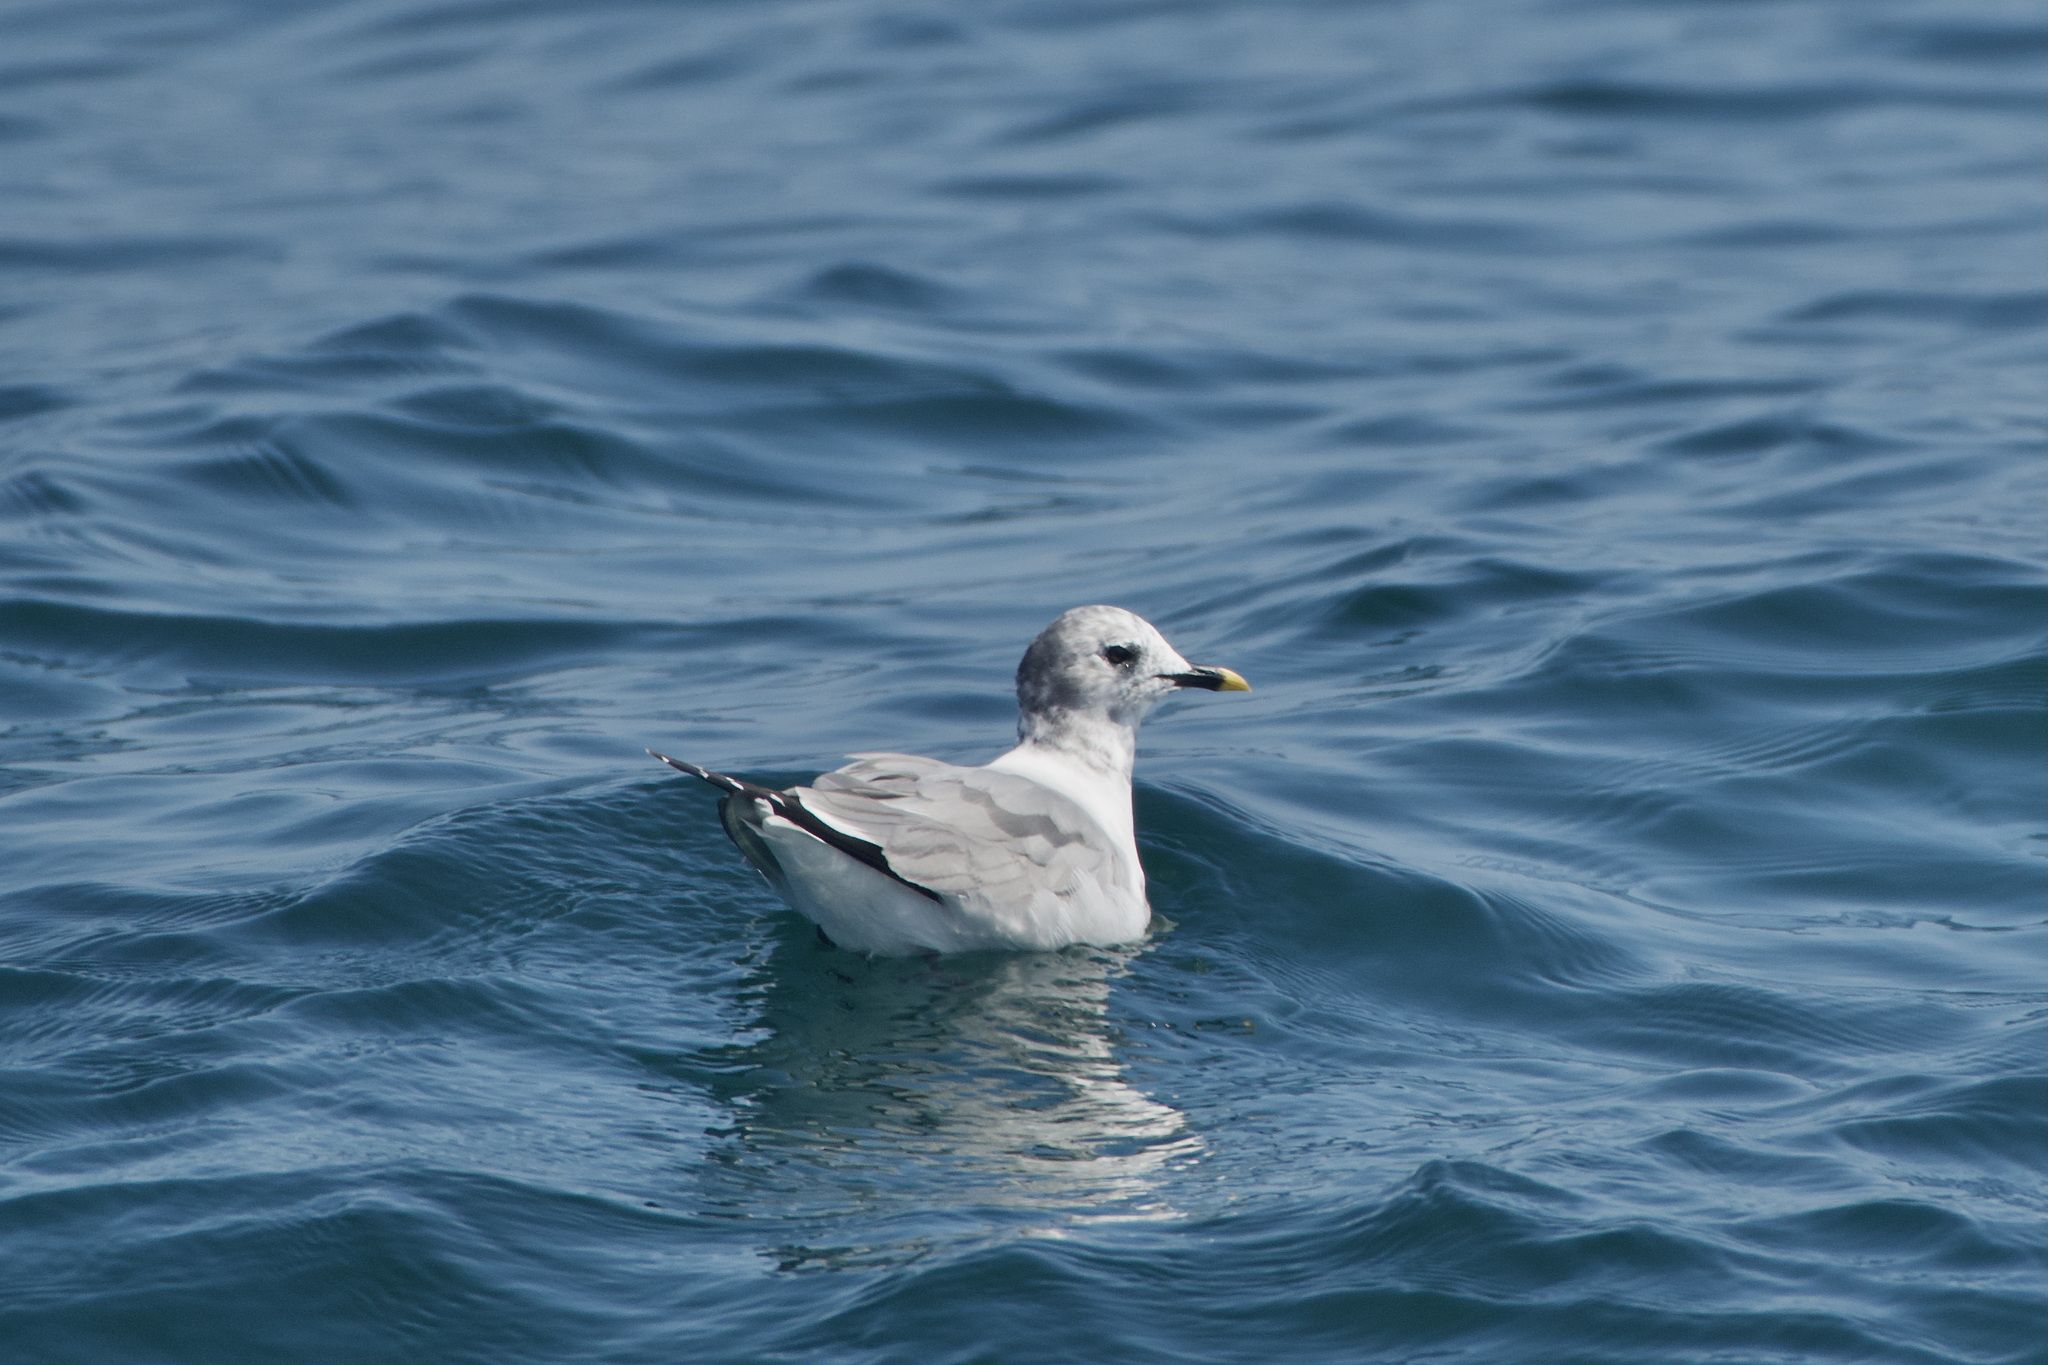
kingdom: Animalia
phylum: Chordata
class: Aves
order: Charadriiformes
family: Laridae
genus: Xema
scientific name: Xema sabini
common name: Sabine's gull
